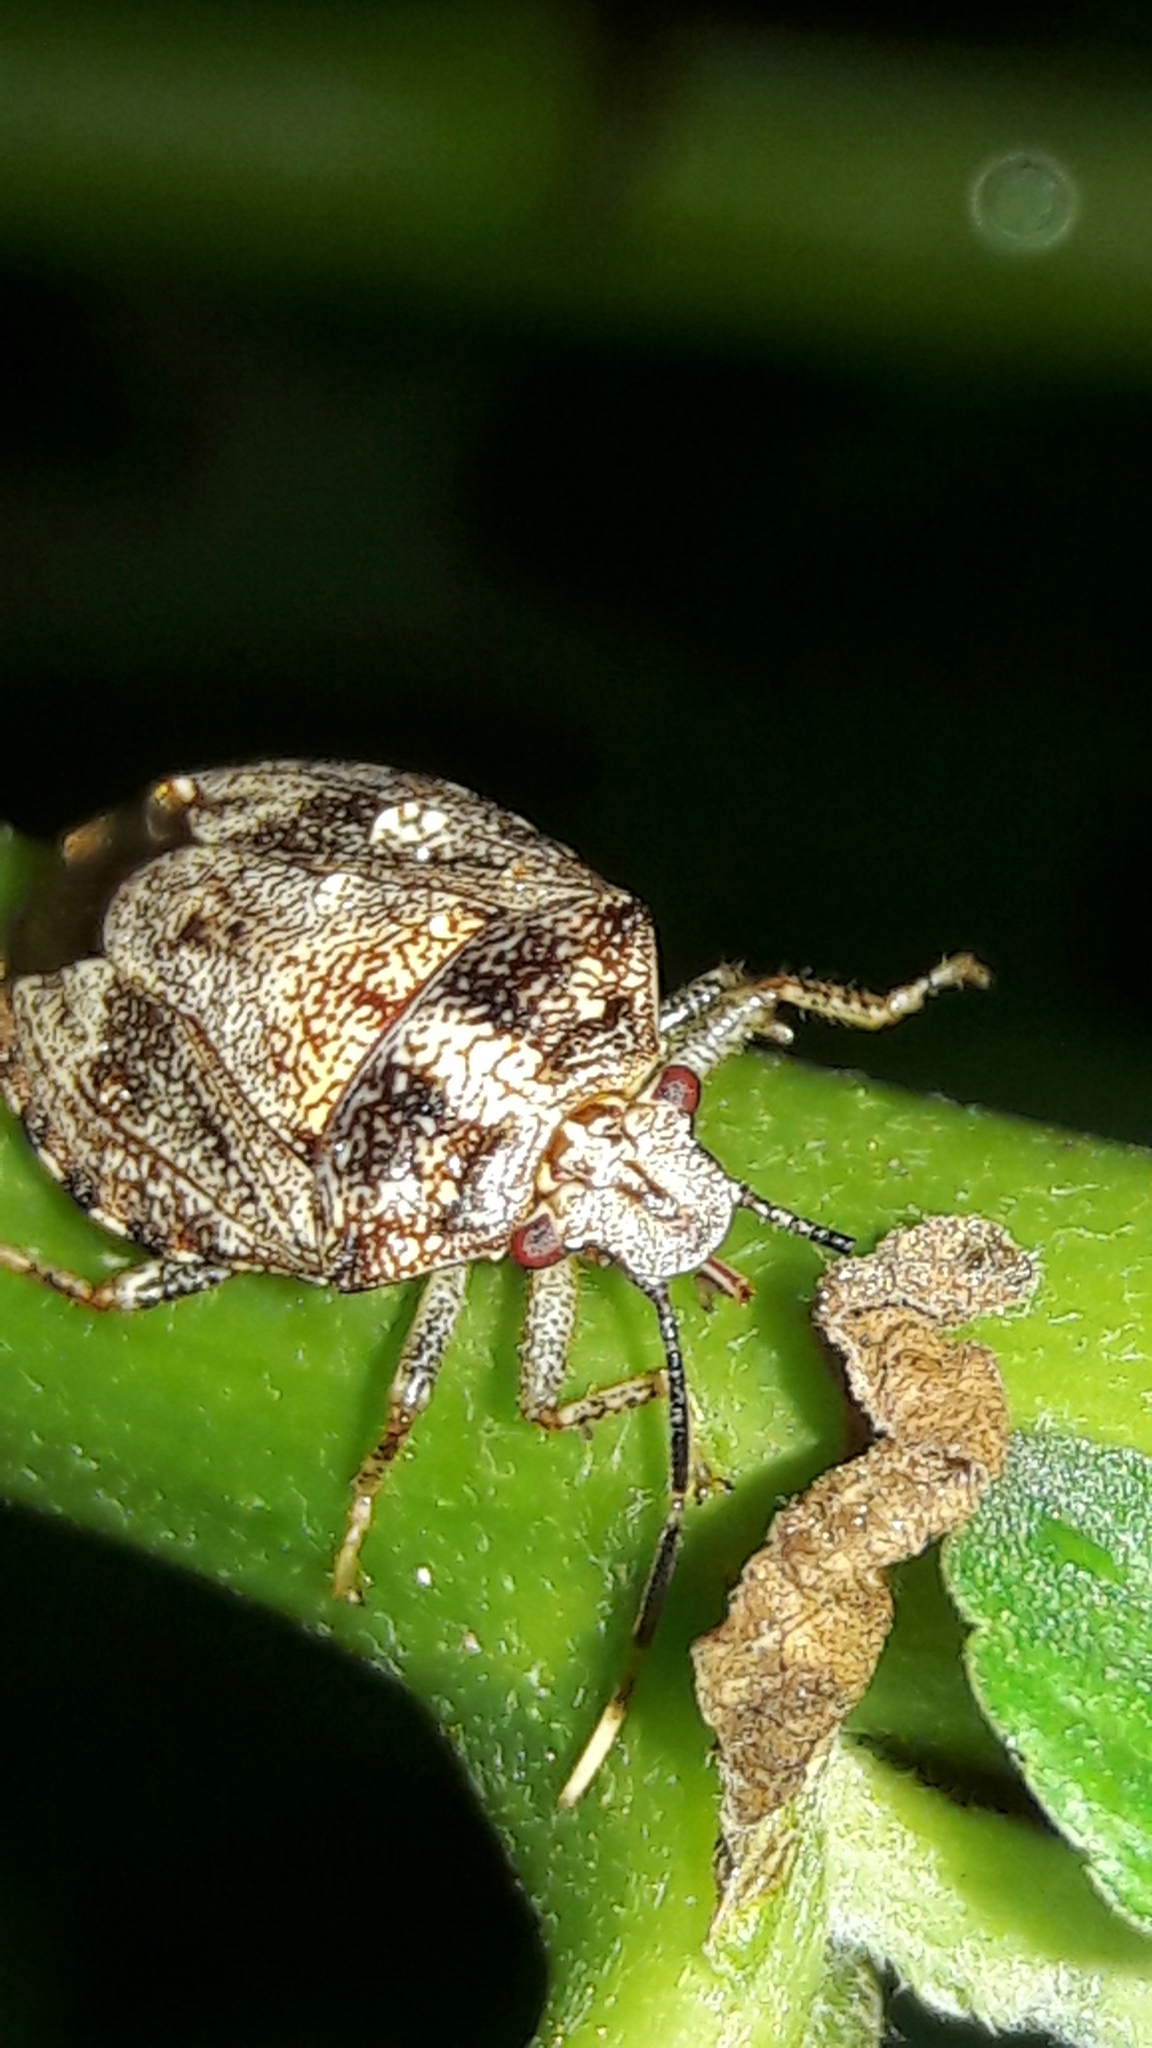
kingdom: Animalia
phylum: Arthropoda
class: Insecta
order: Hemiptera
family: Pentatomidae
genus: Antiteuchus
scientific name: Antiteuchus tripterus
